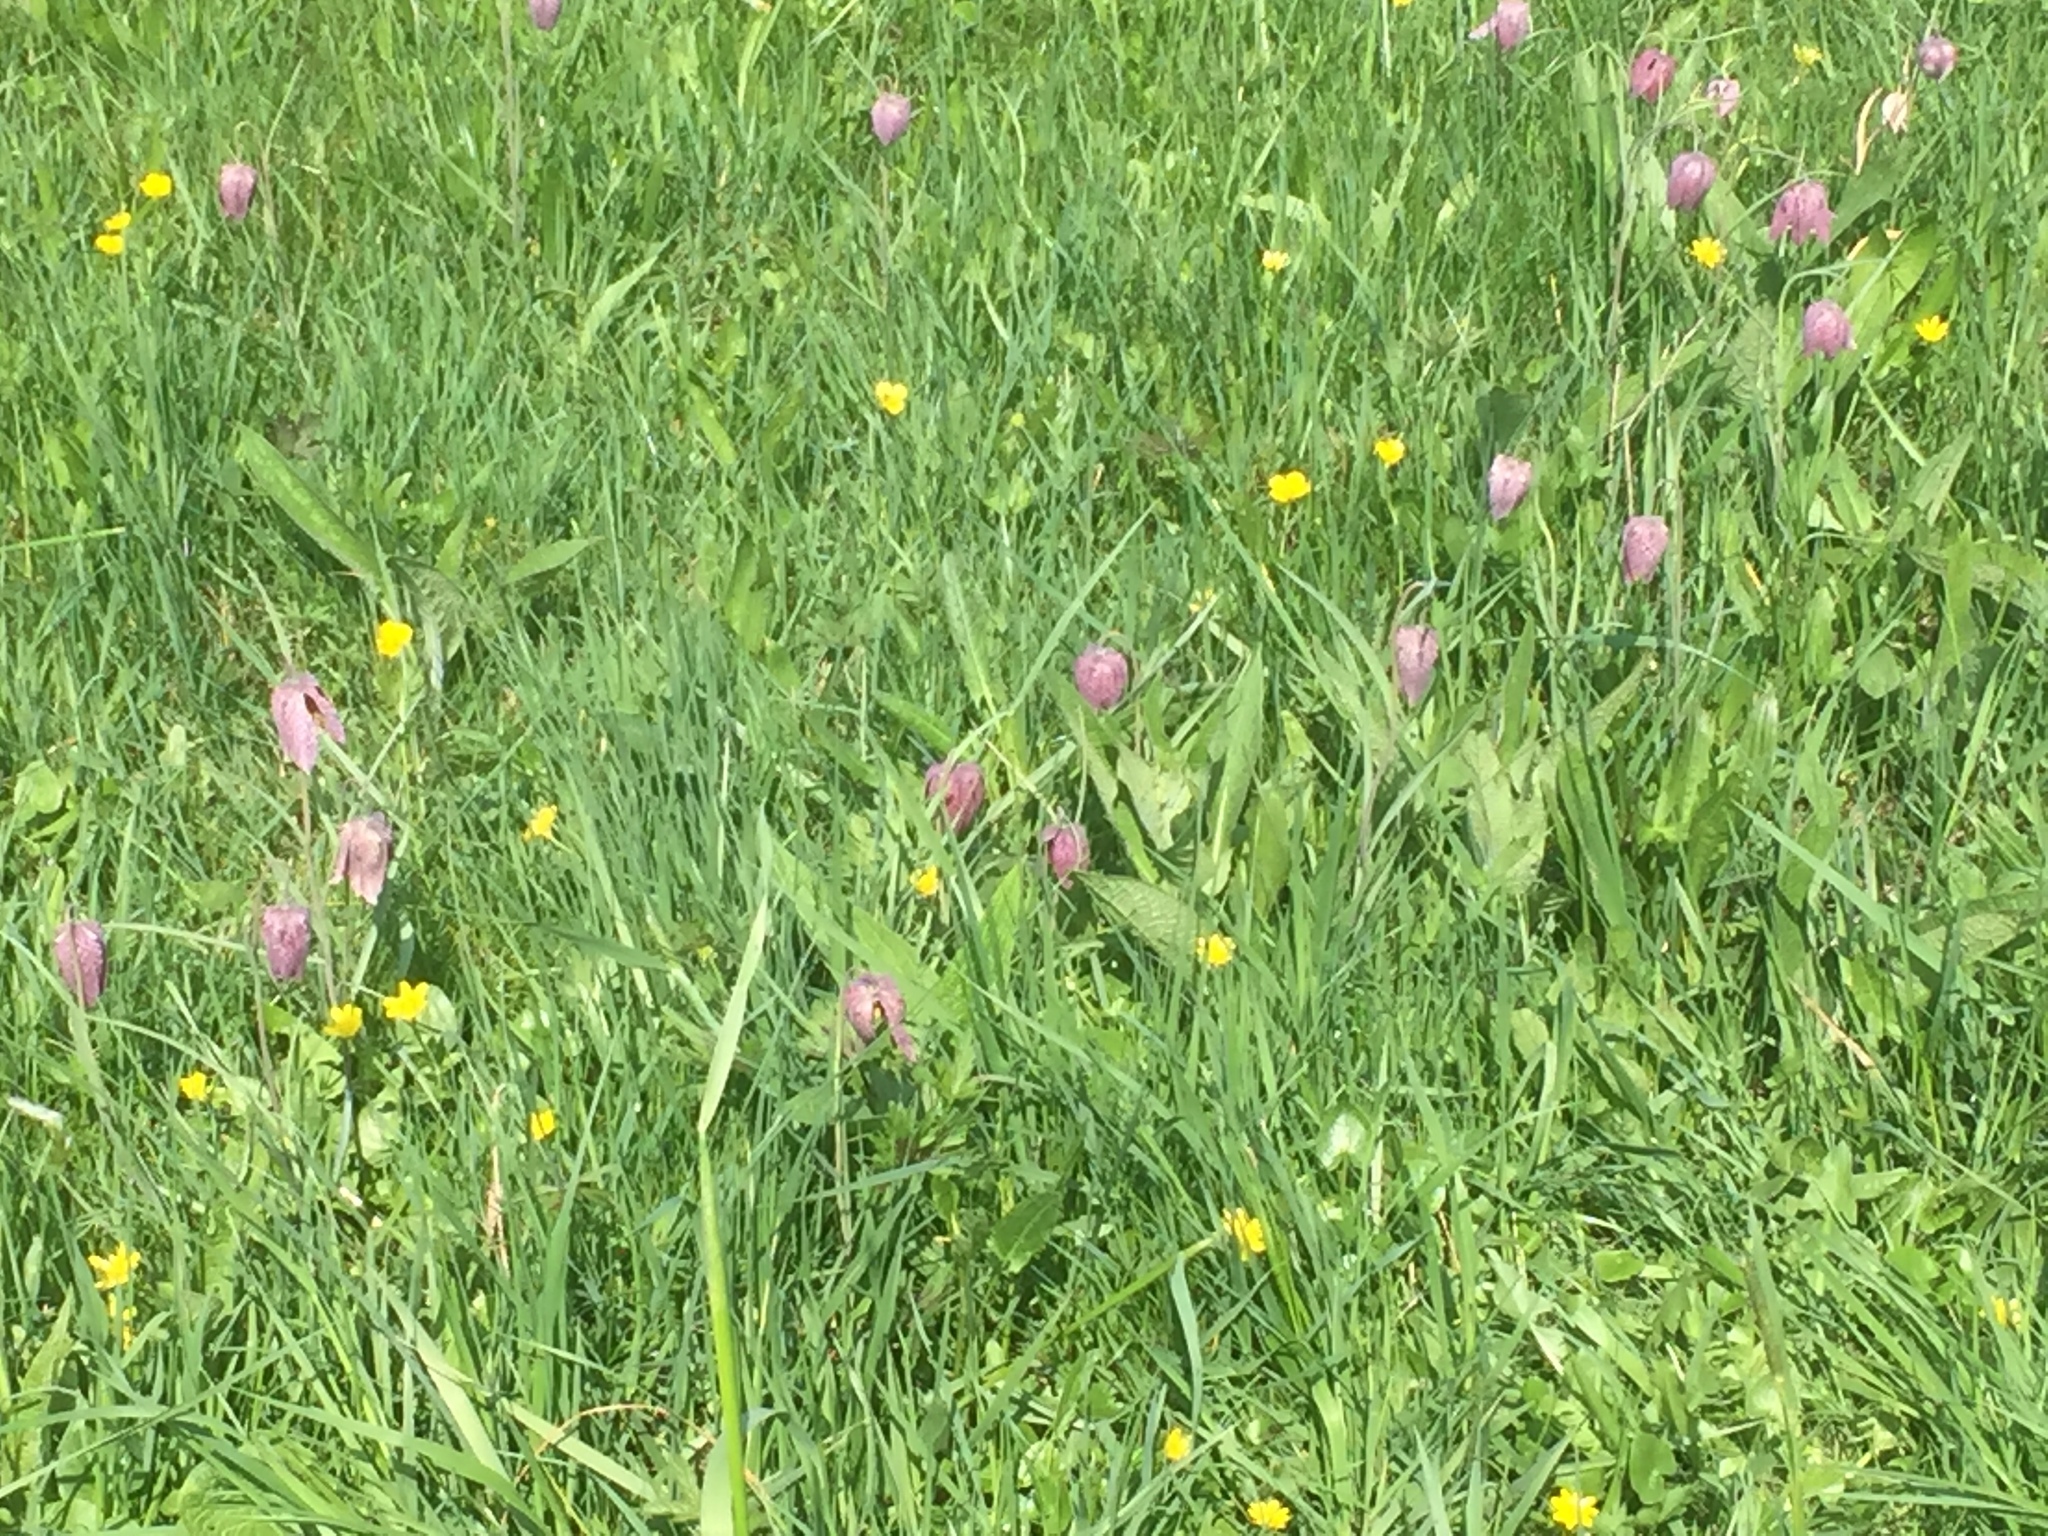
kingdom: Plantae
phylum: Tracheophyta
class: Liliopsida
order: Liliales
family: Liliaceae
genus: Fritillaria
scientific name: Fritillaria meleagris
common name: Fritillary
